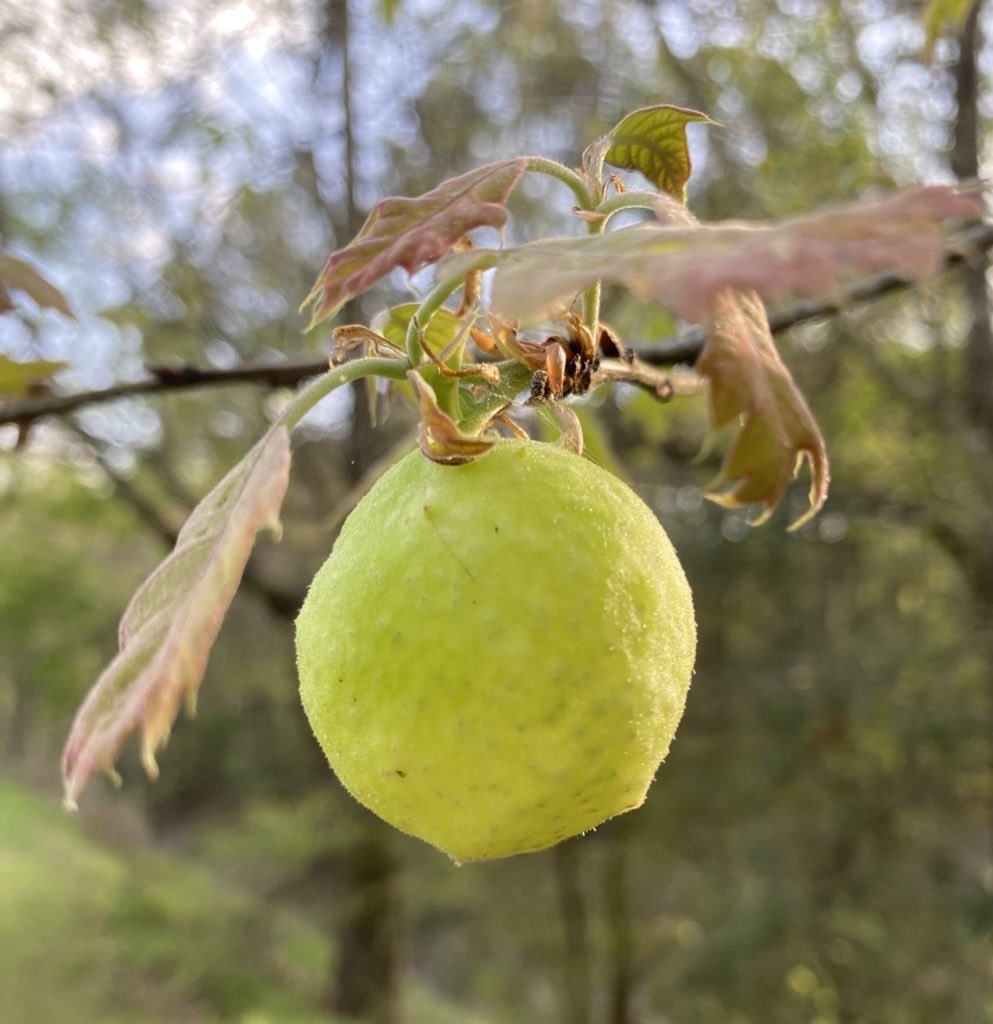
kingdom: Animalia
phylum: Arthropoda
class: Insecta
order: Hymenoptera
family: Cynipidae
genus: Amphibolips
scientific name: Amphibolips
